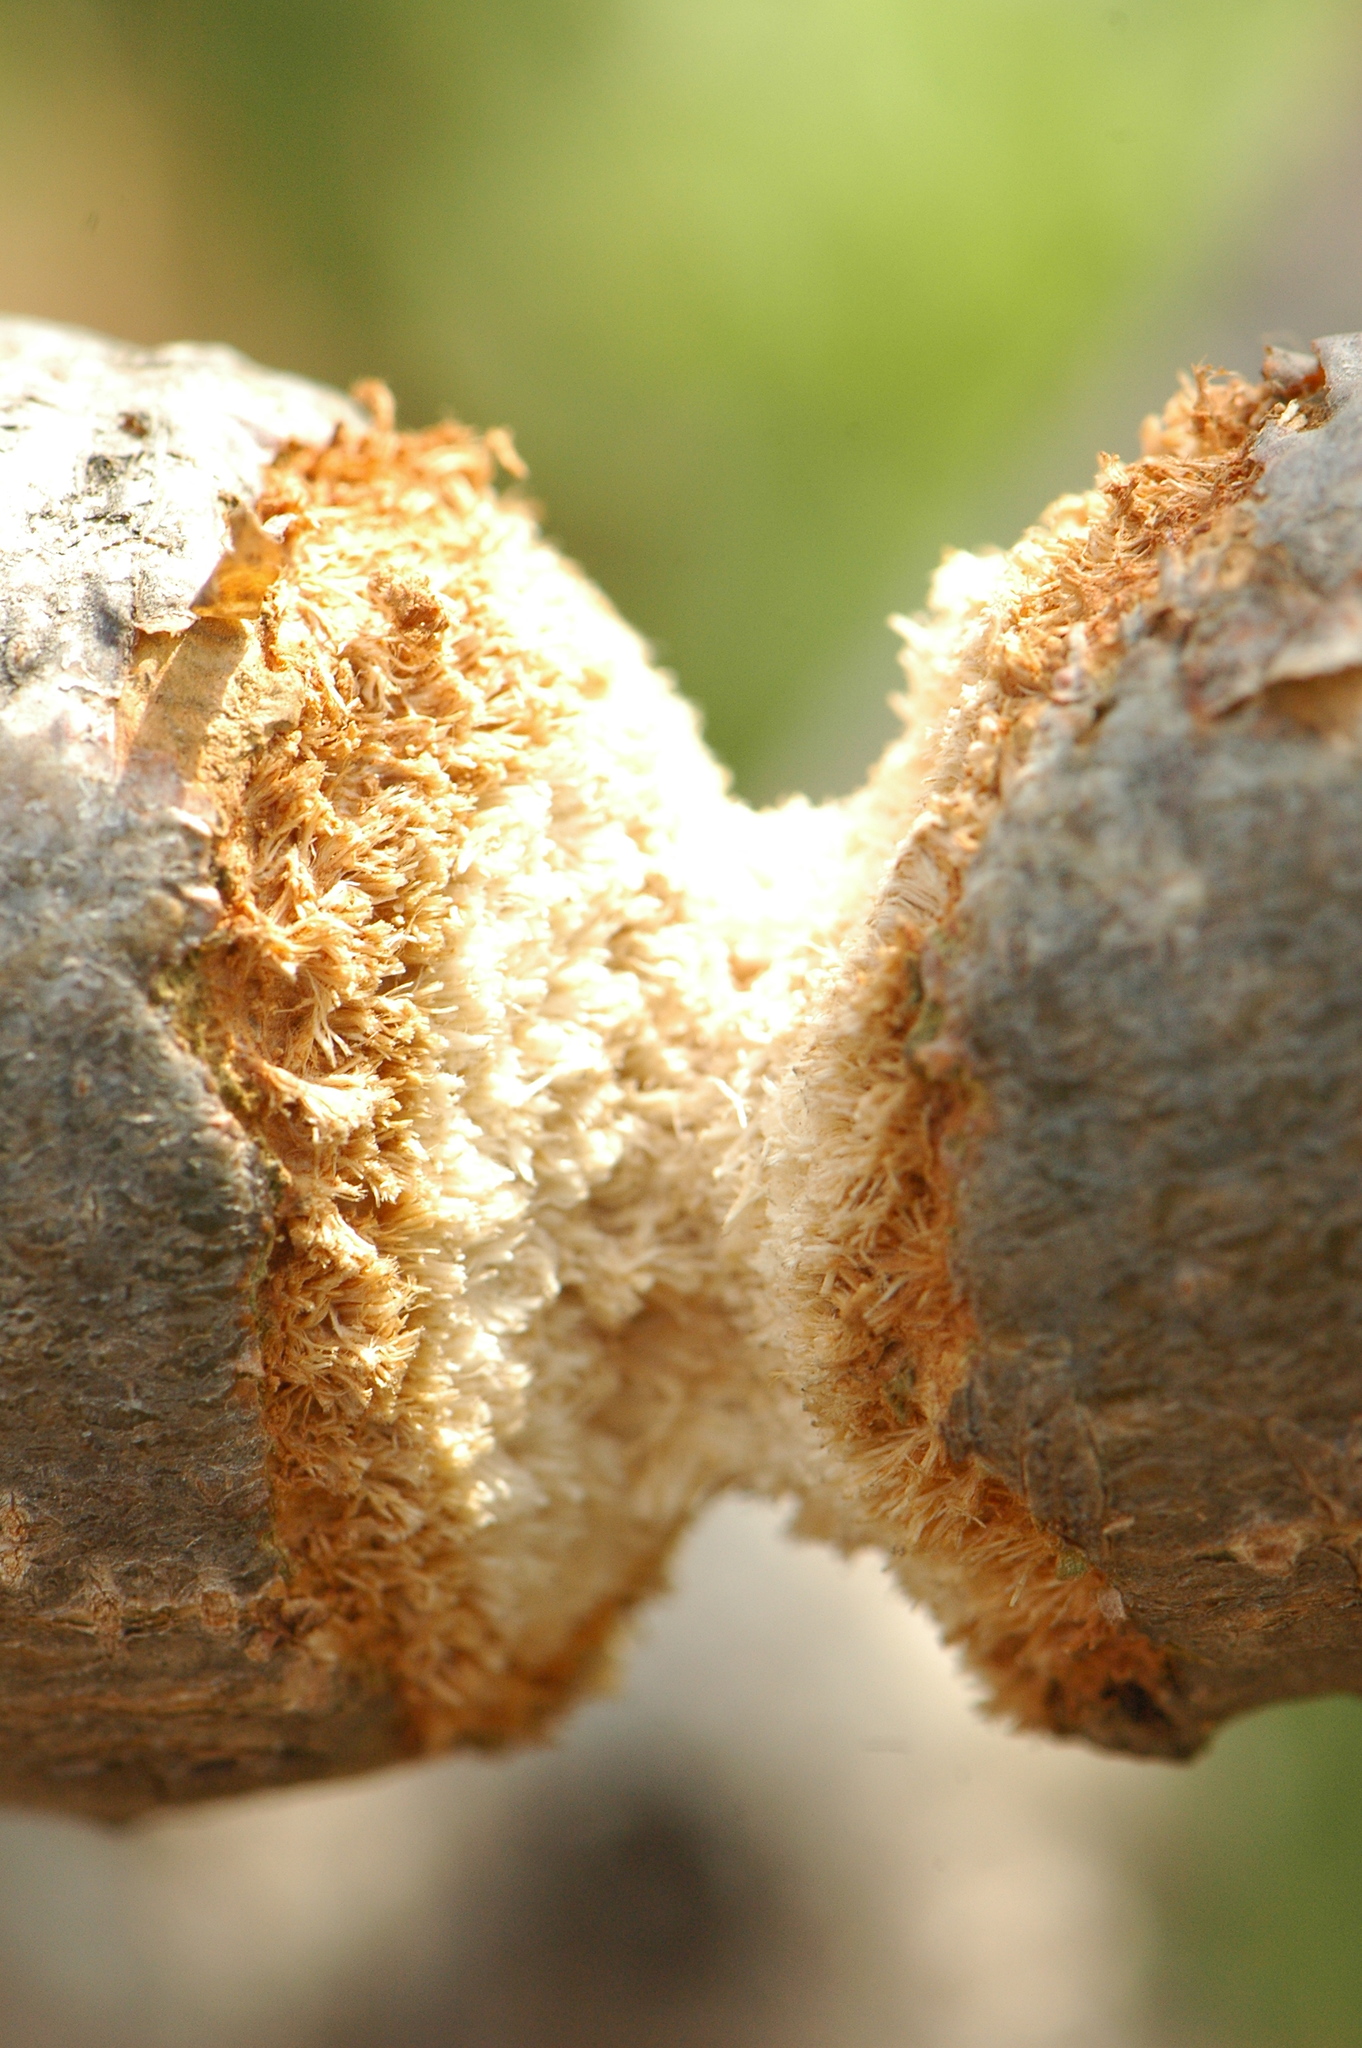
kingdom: Animalia
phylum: Arthropoda
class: Insecta
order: Coleoptera
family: Cerambycidae
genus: Diastocera
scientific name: Diastocera trifasciata
